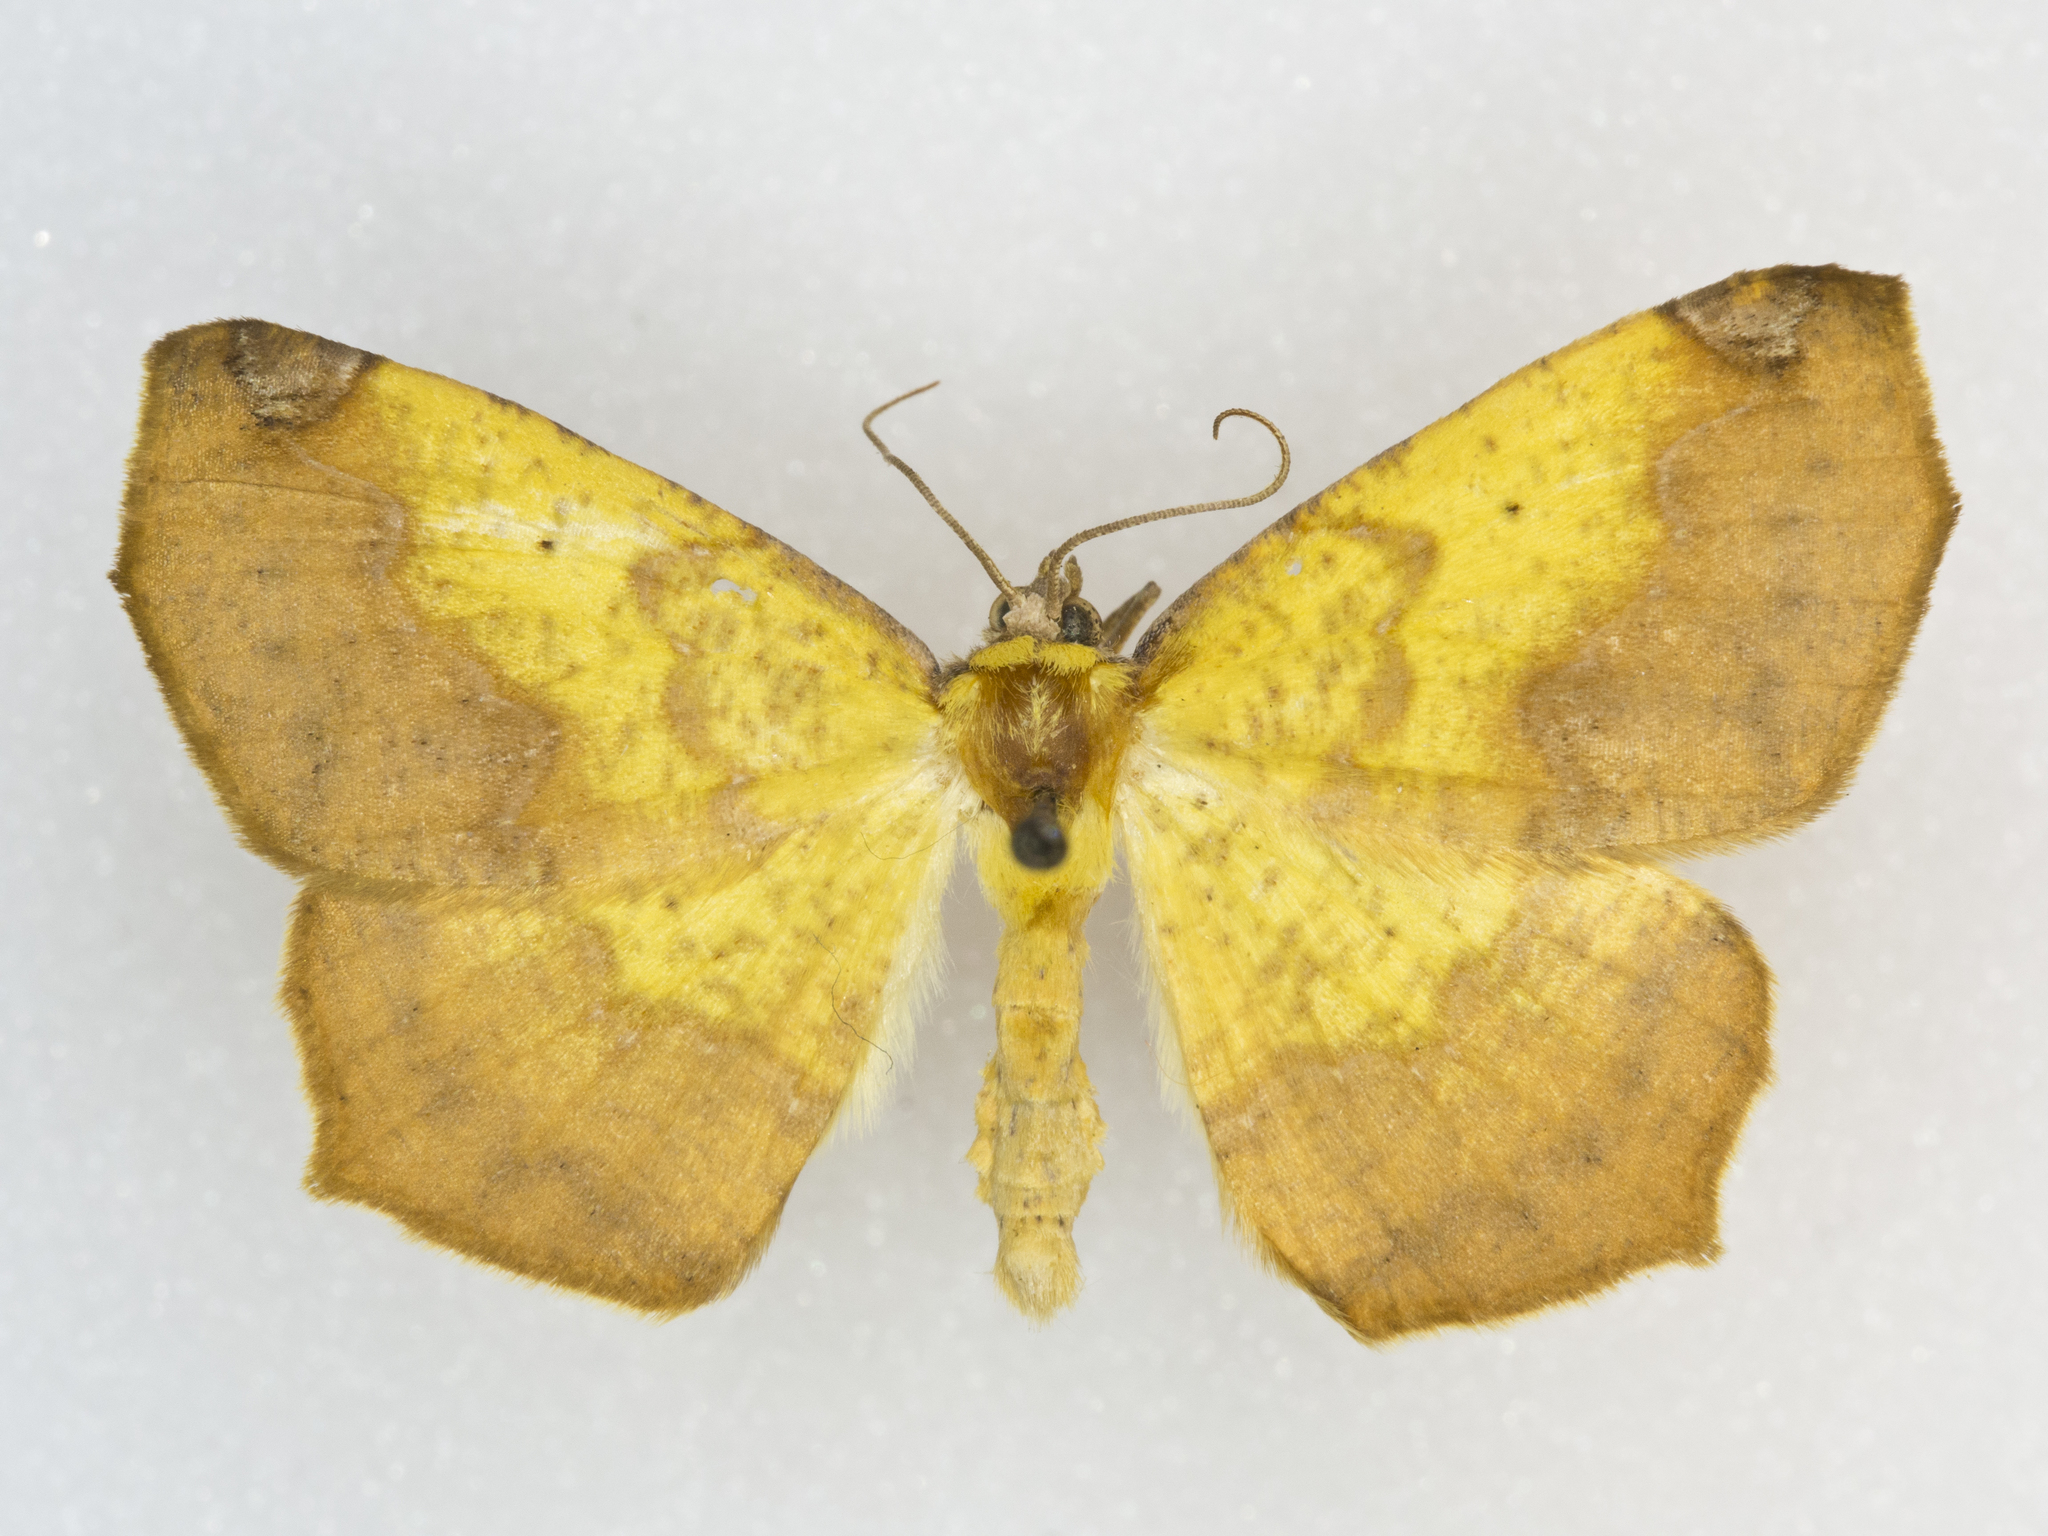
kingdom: Animalia
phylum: Arthropoda
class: Insecta
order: Lepidoptera
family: Geometridae
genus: Antepione
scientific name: Antepione thisoaria
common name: Variable antipione
